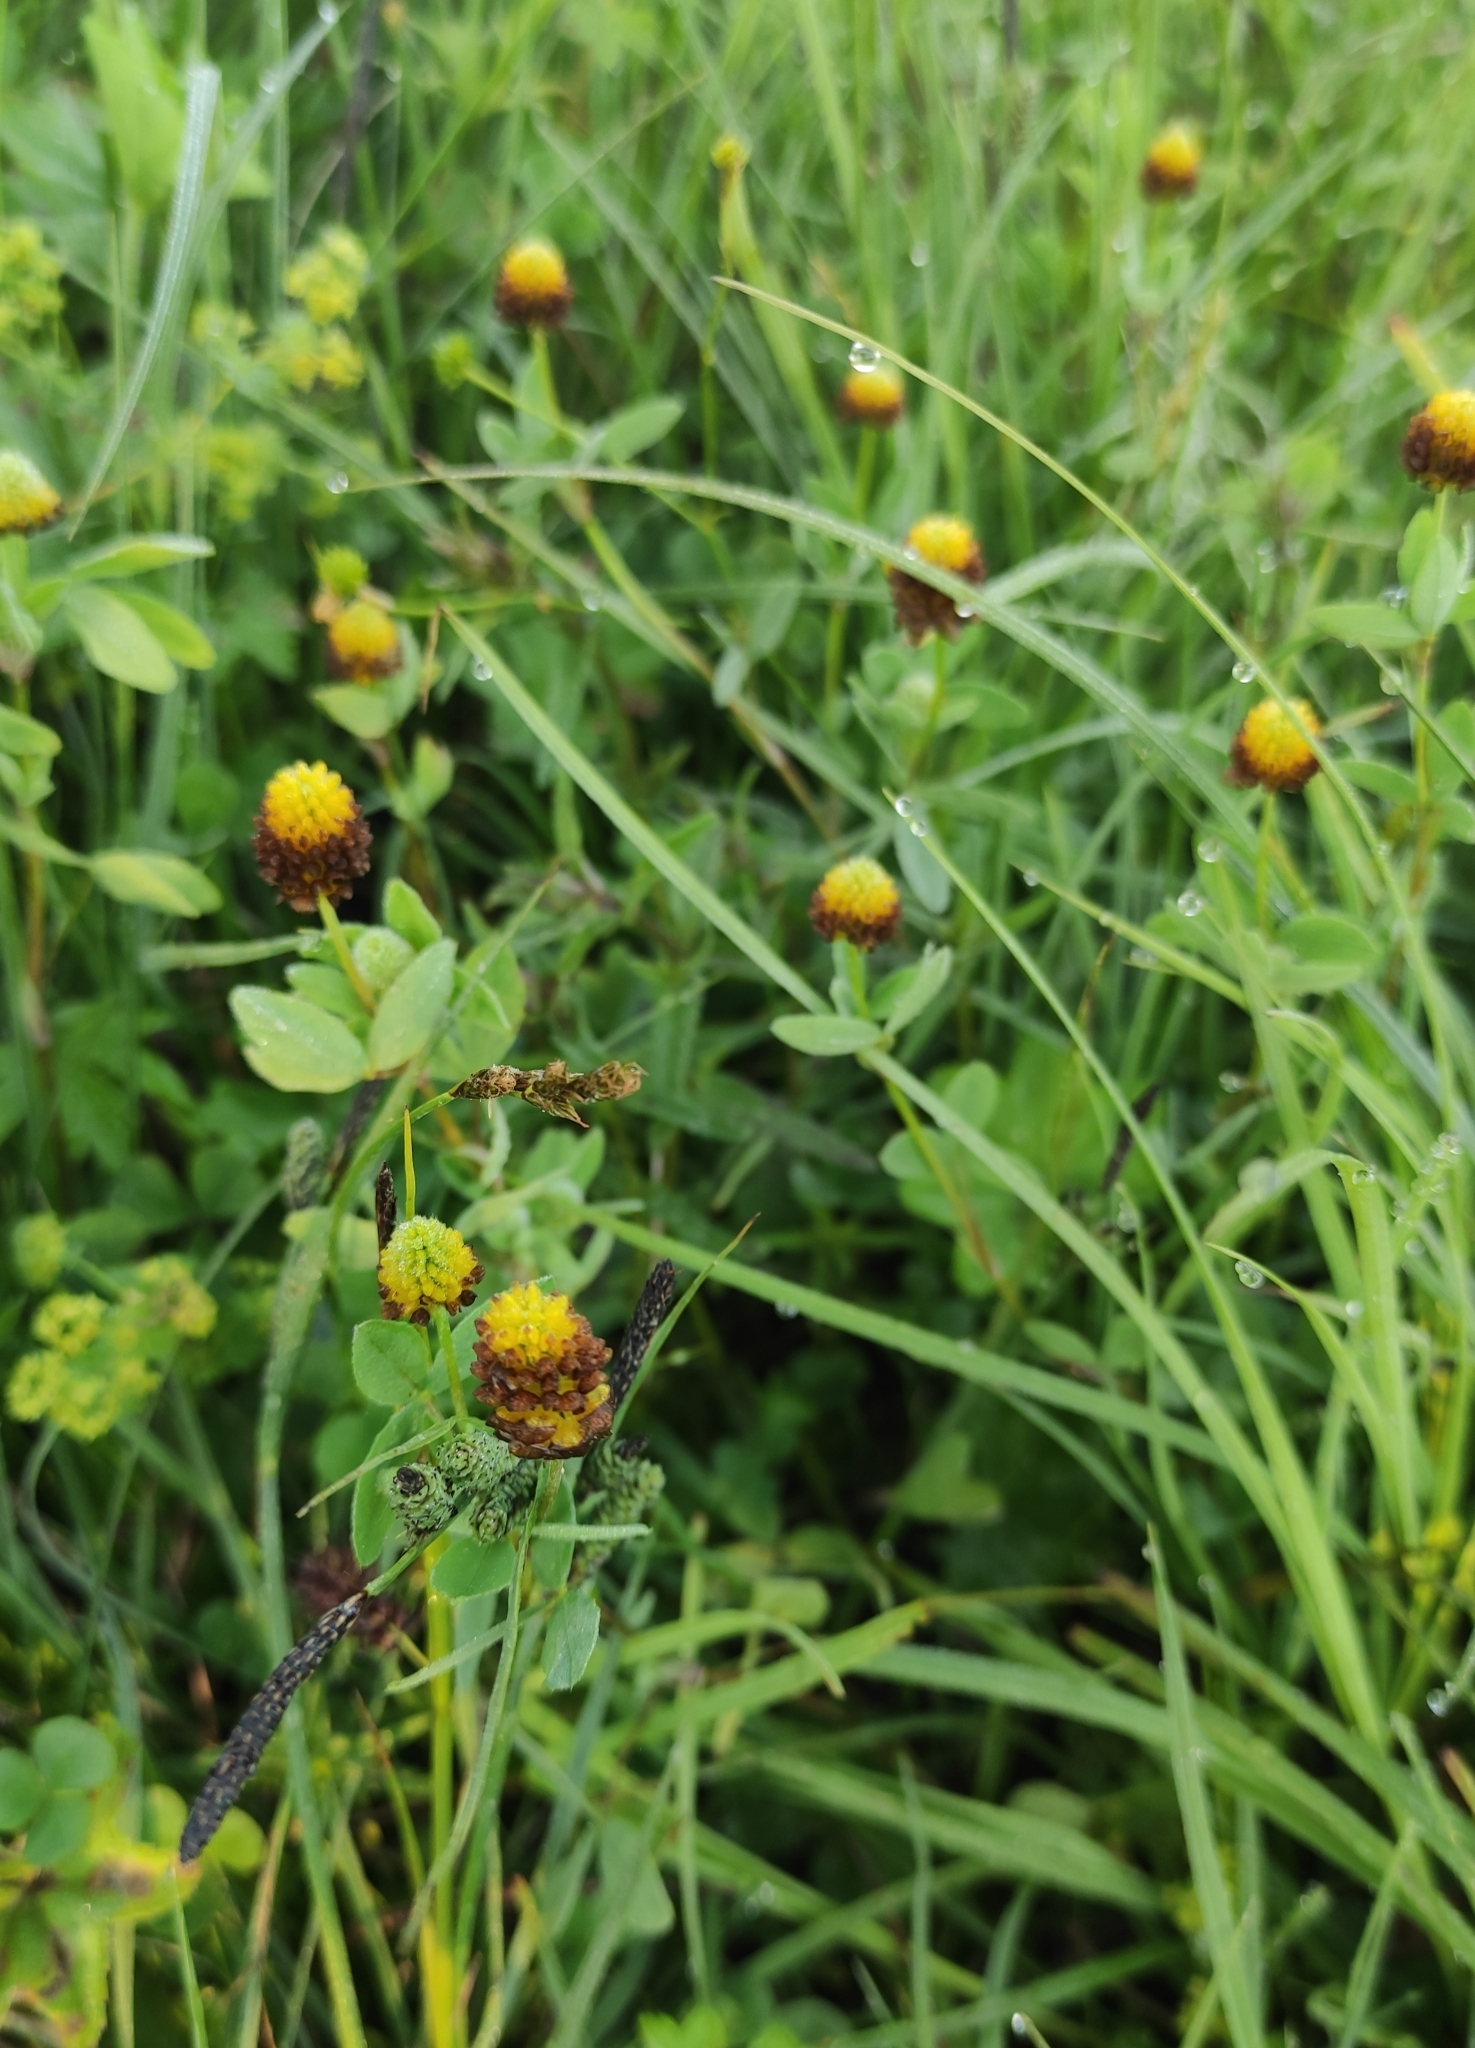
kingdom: Plantae
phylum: Tracheophyta
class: Magnoliopsida
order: Fabales
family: Fabaceae
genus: Trifolium
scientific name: Trifolium spadiceum
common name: Brown moor clover
